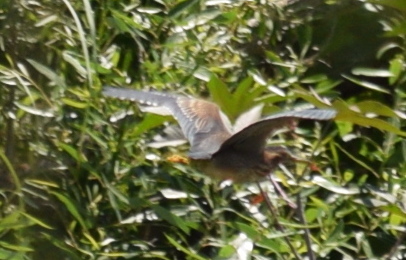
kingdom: Animalia
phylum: Chordata
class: Aves
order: Pelecaniformes
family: Ardeidae
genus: Butorides
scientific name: Butorides virescens
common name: Green heron
